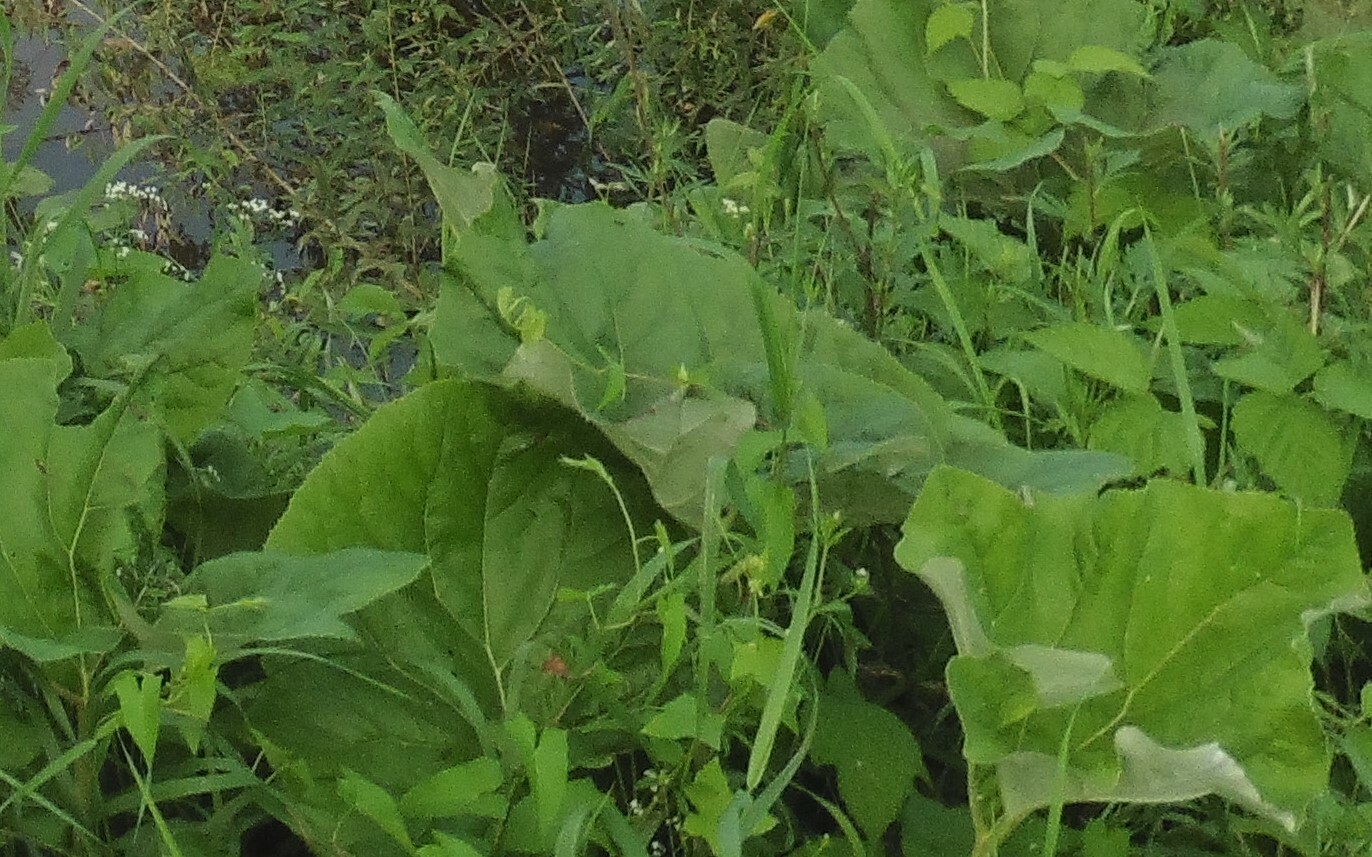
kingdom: Plantae
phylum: Tracheophyta
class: Magnoliopsida
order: Asterales
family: Asteraceae
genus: Petasites
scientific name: Petasites spurius
